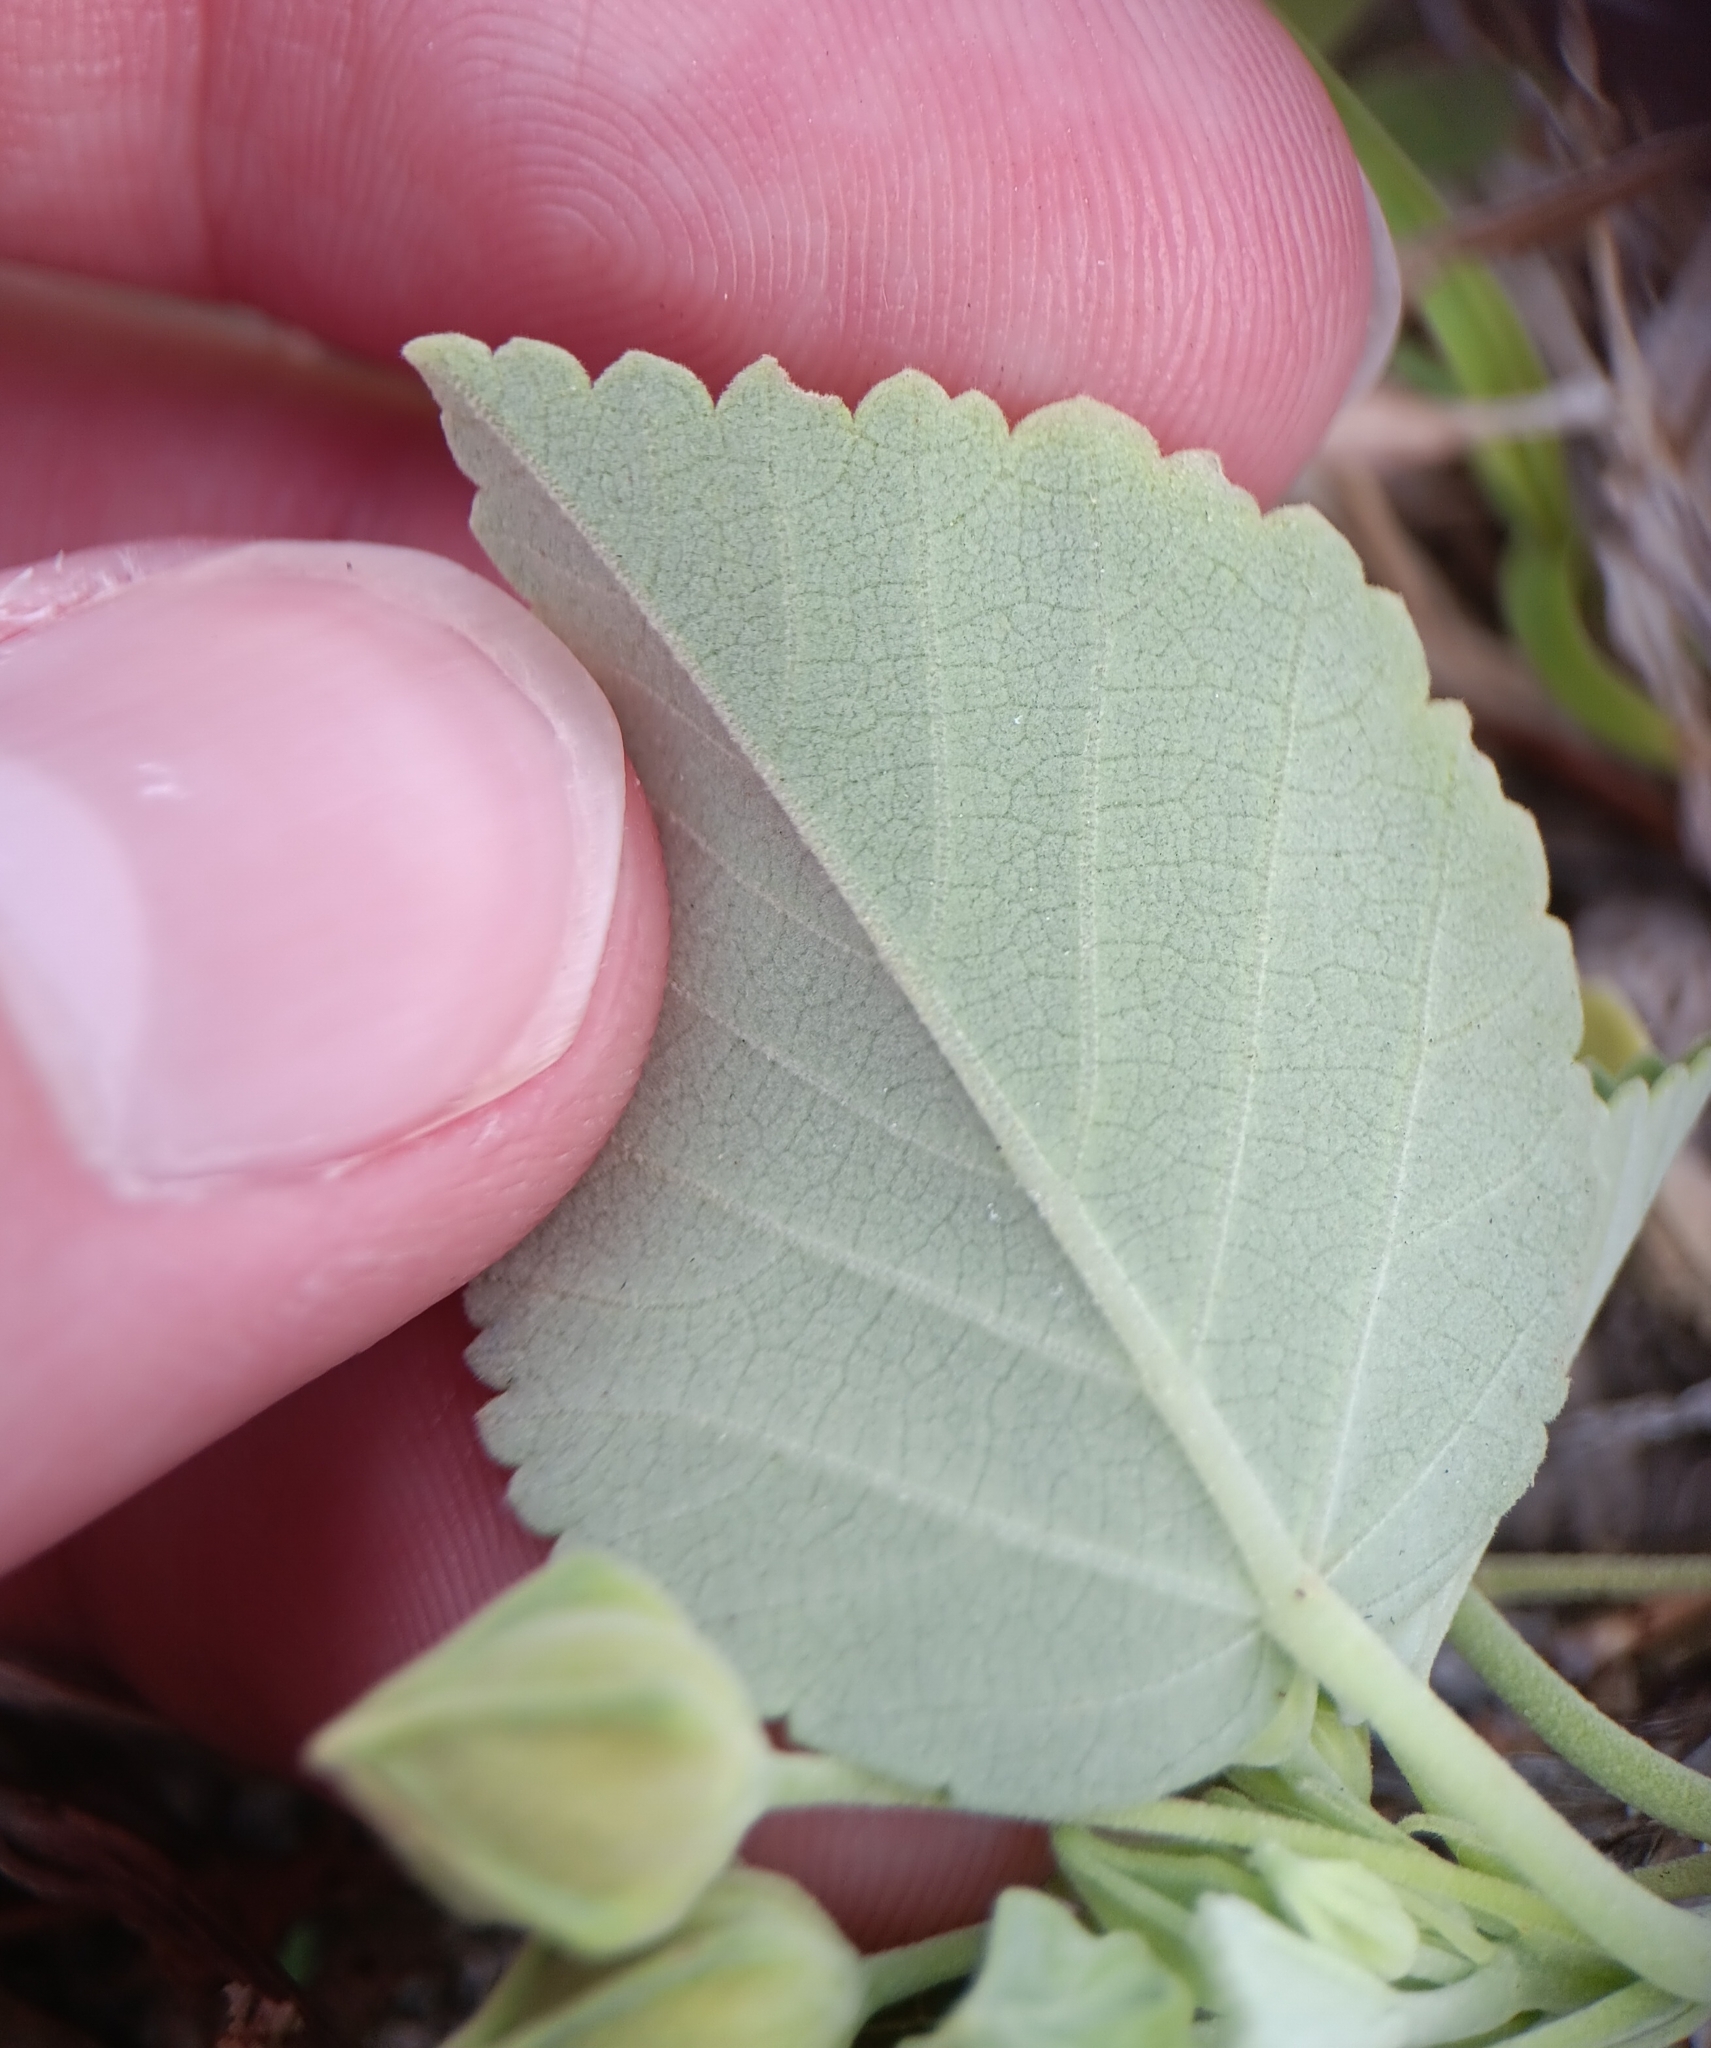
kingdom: Plantae
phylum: Tracheophyta
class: Magnoliopsida
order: Malvales
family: Malvaceae
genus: Sida
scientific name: Sida fallax
